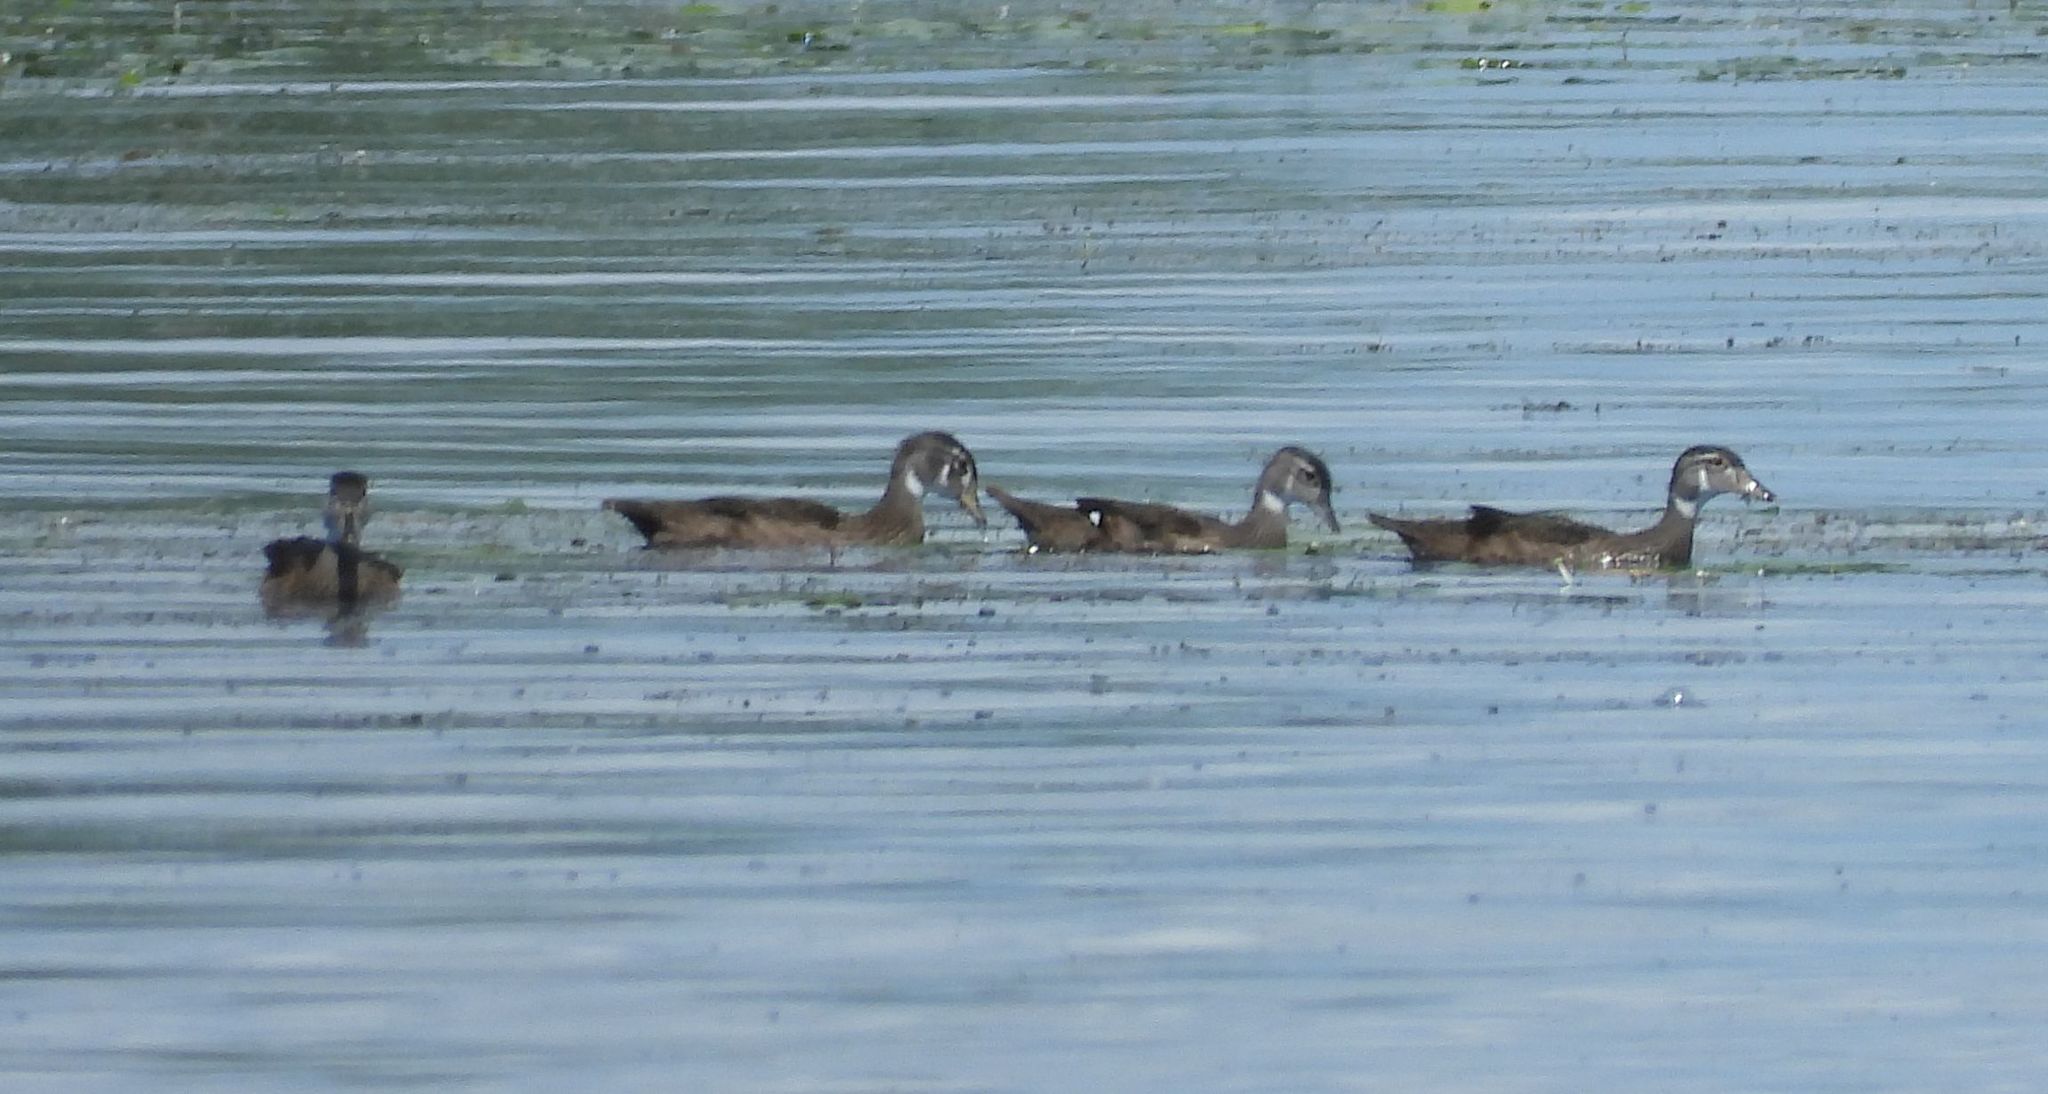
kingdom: Animalia
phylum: Chordata
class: Aves
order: Anseriformes
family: Anatidae
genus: Aix
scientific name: Aix sponsa
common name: Wood duck
